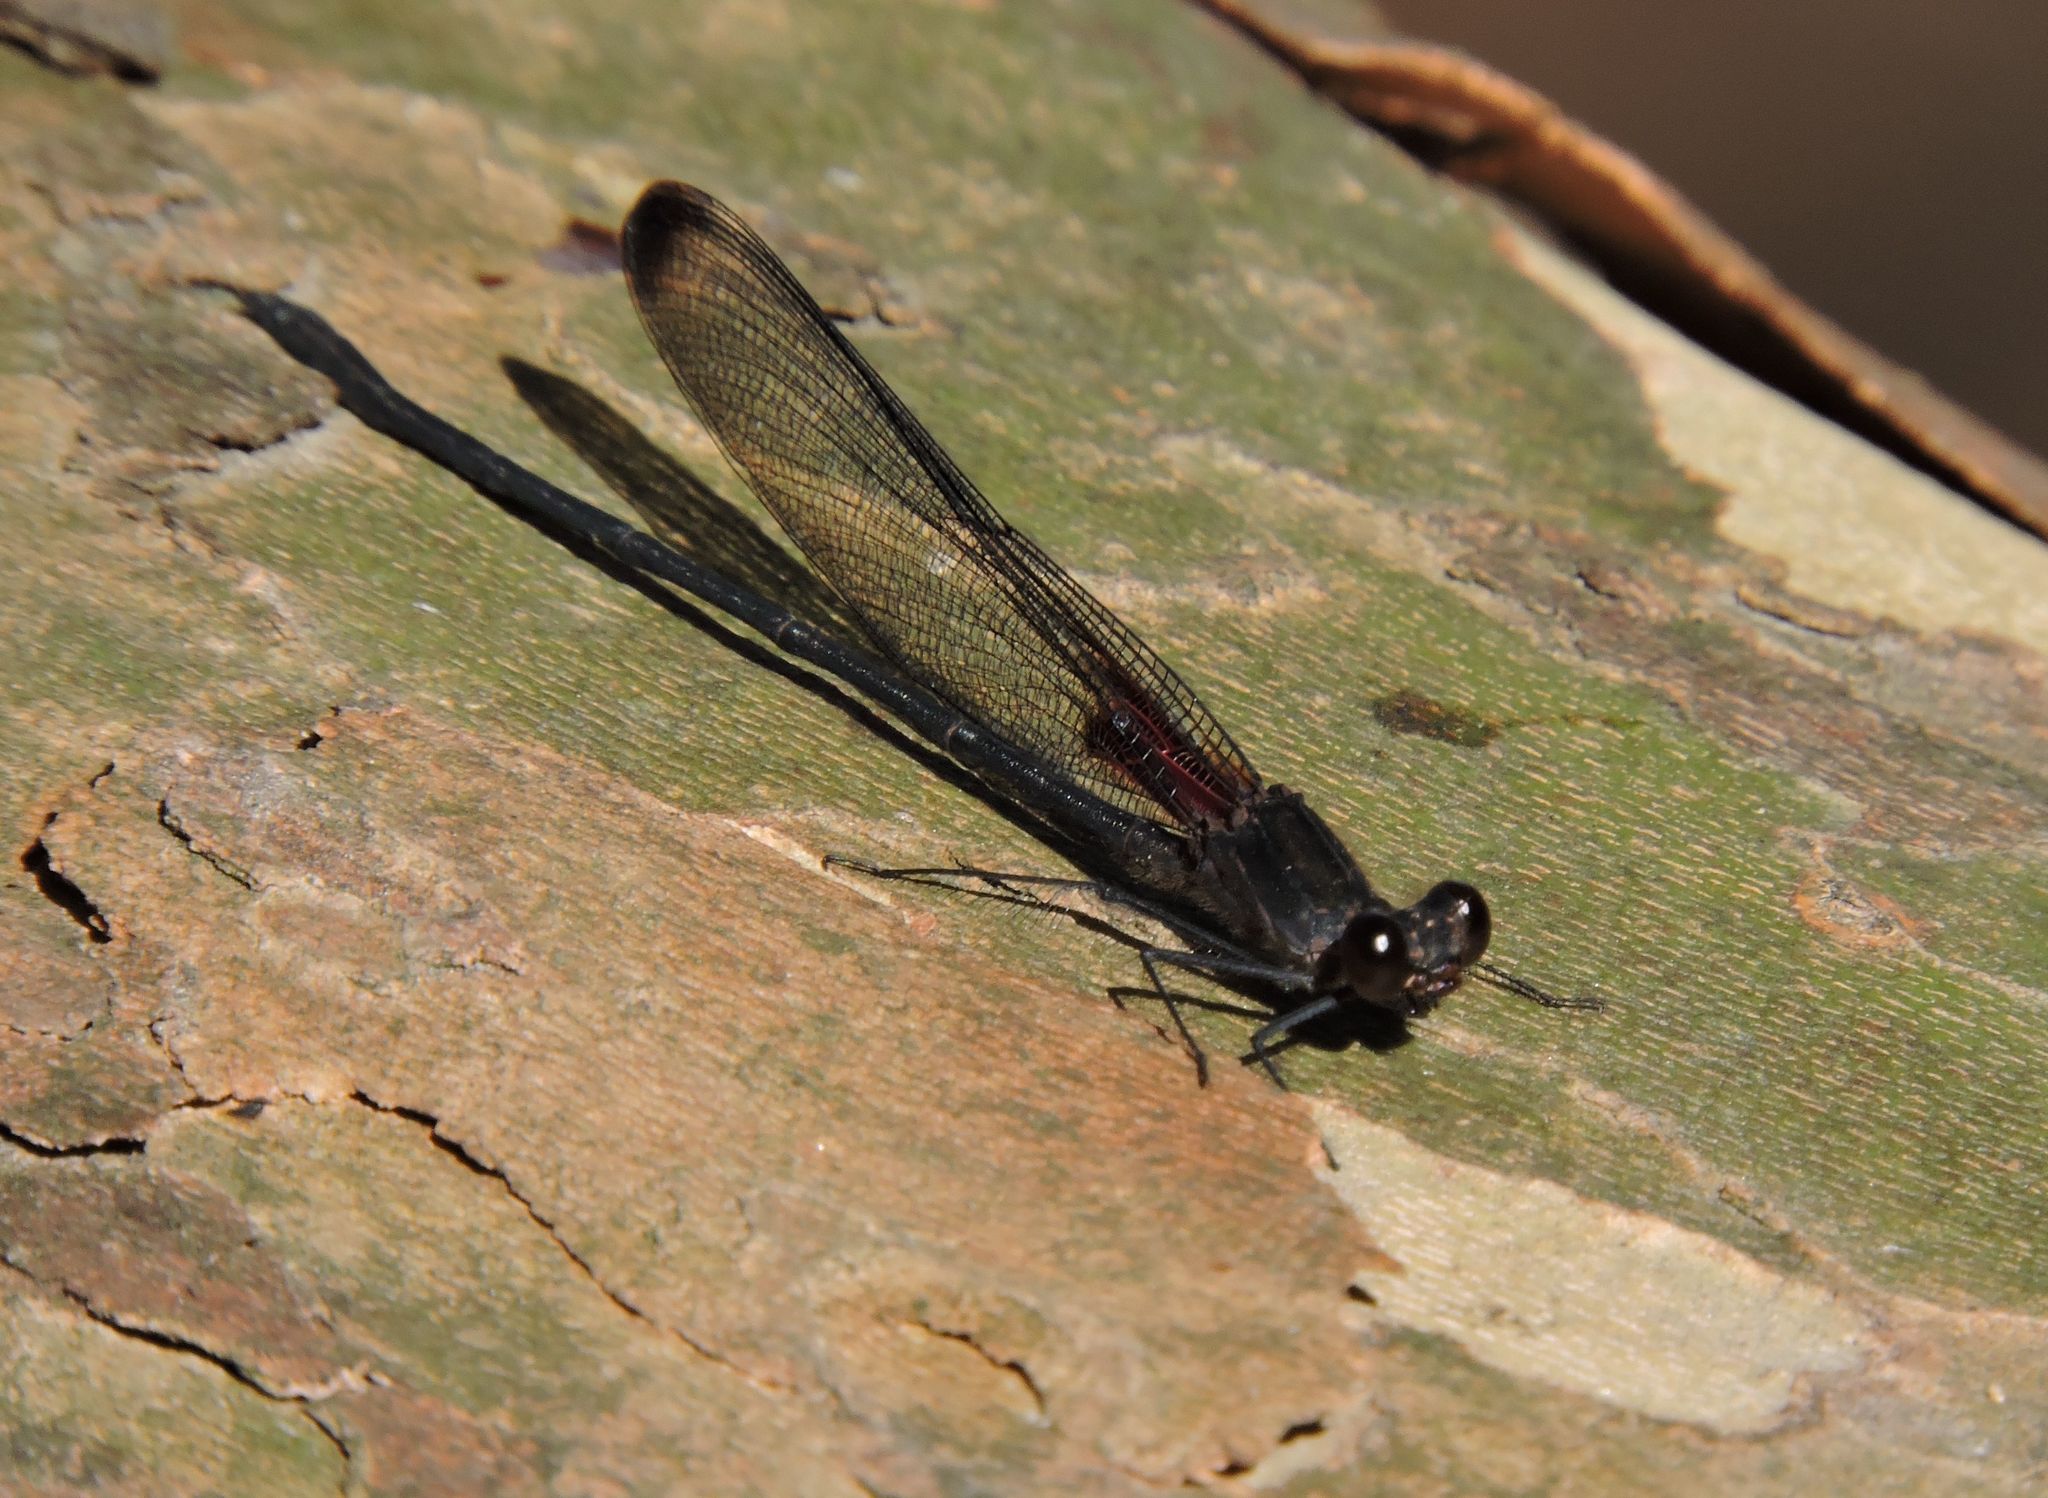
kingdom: Animalia
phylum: Arthropoda
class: Insecta
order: Odonata
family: Calopterygidae
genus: Hetaerina
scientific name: Hetaerina titia
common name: Smoky rubyspot
